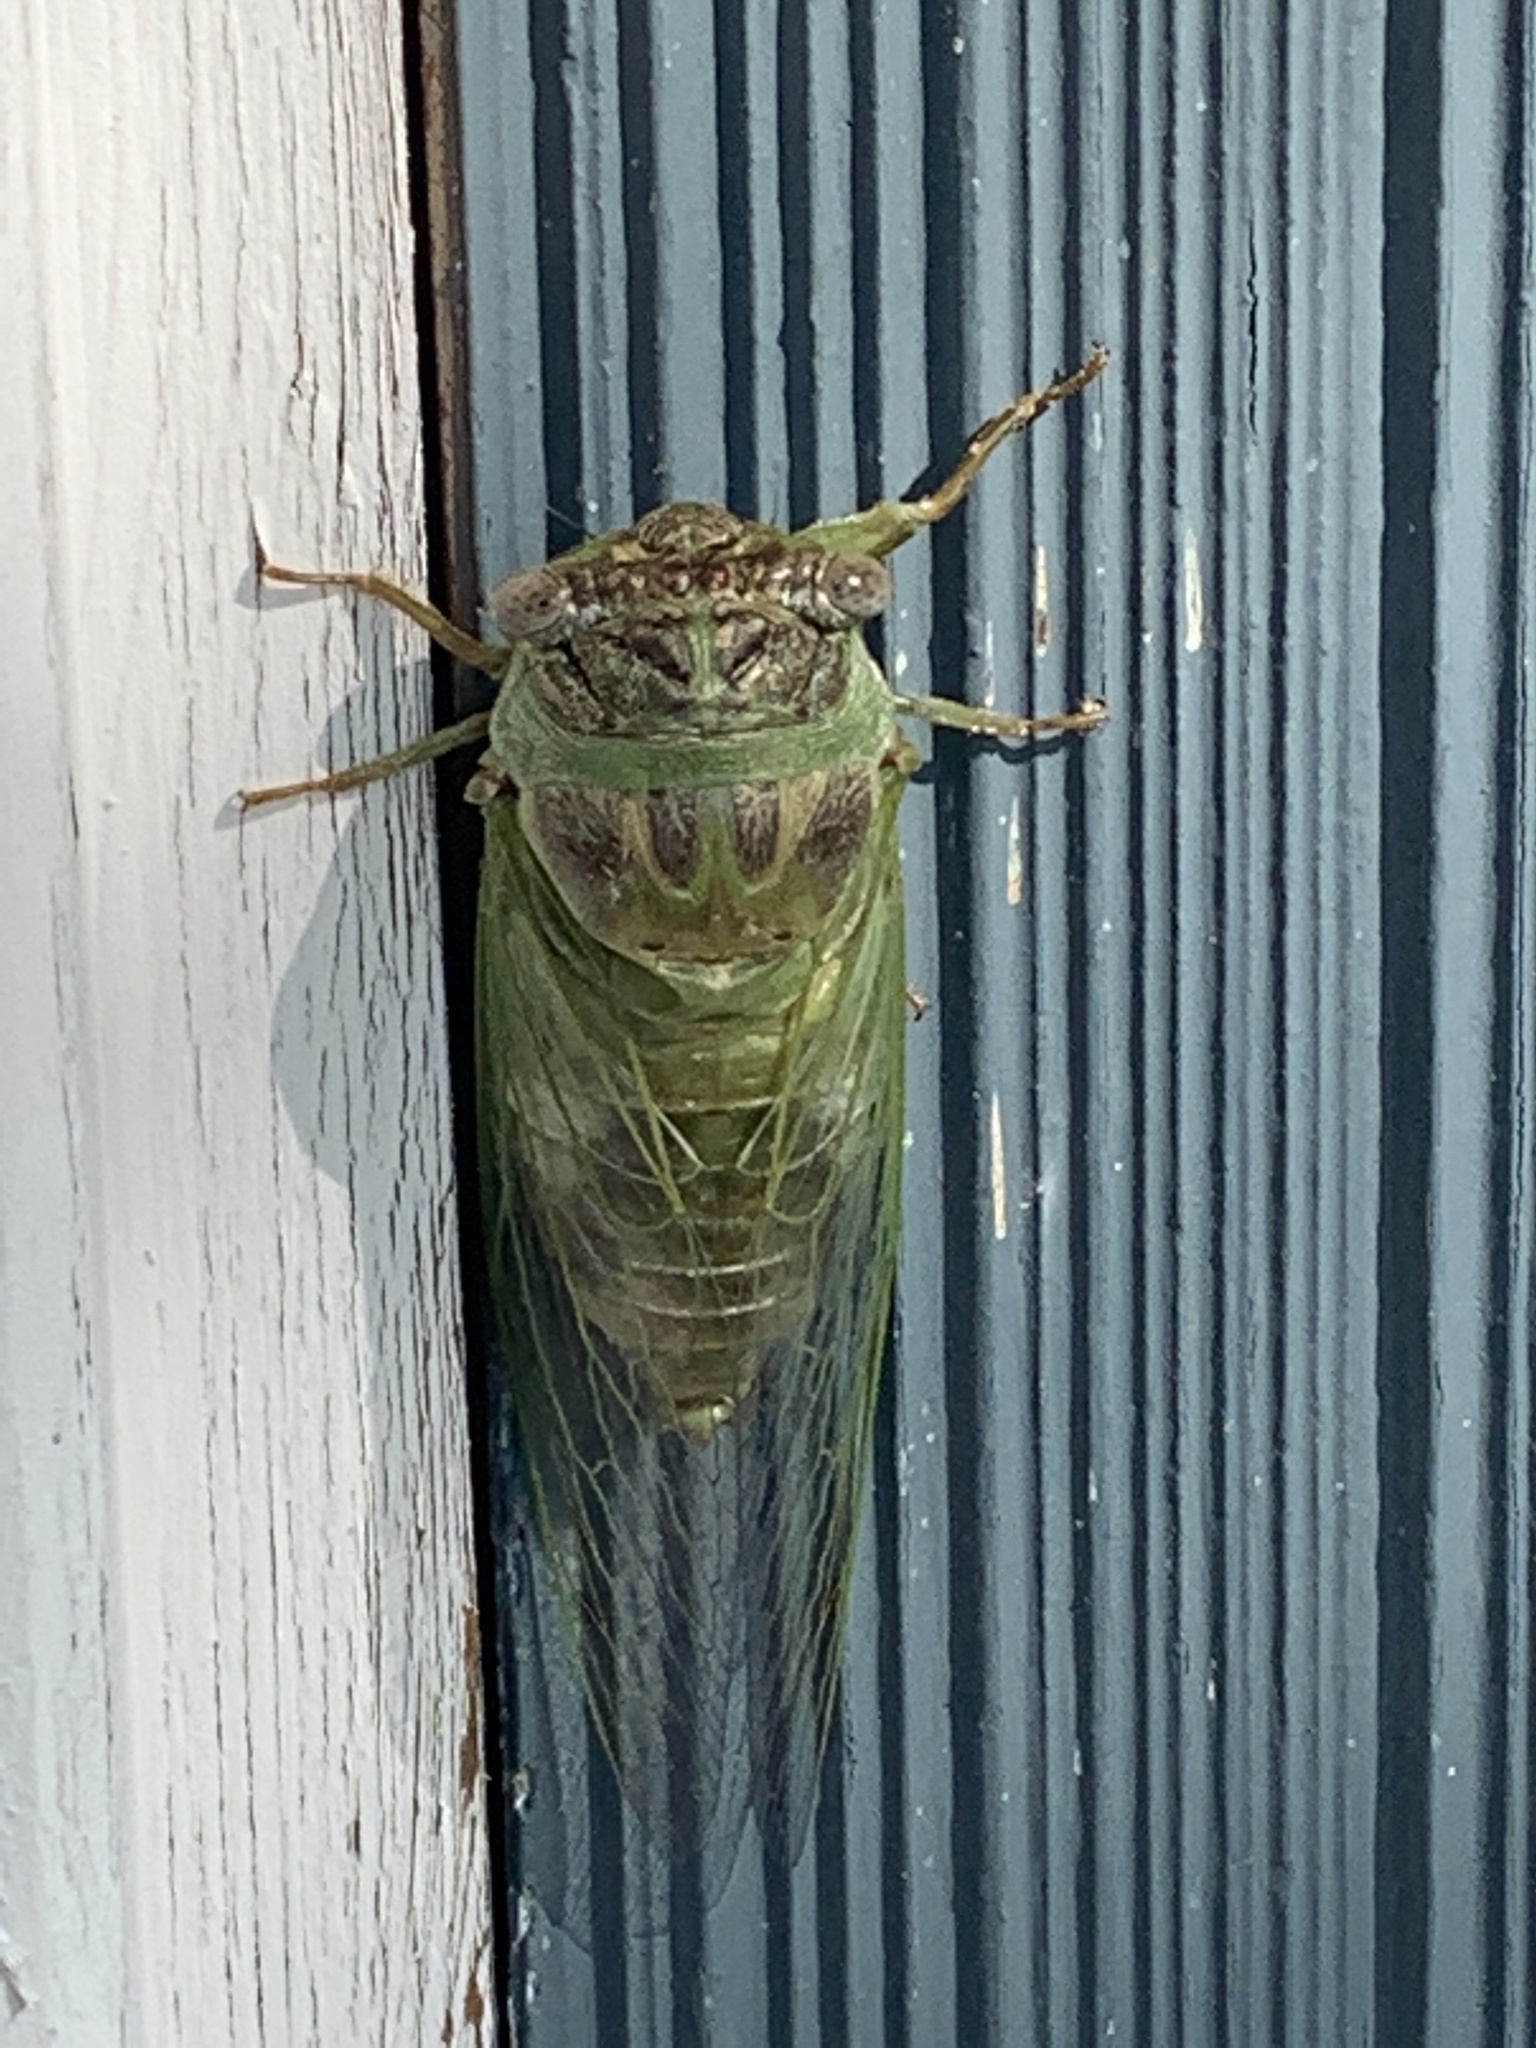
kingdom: Animalia
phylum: Arthropoda
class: Insecta
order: Hemiptera
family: Cicadidae
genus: Diceroprocta
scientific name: Diceroprocta grossa
